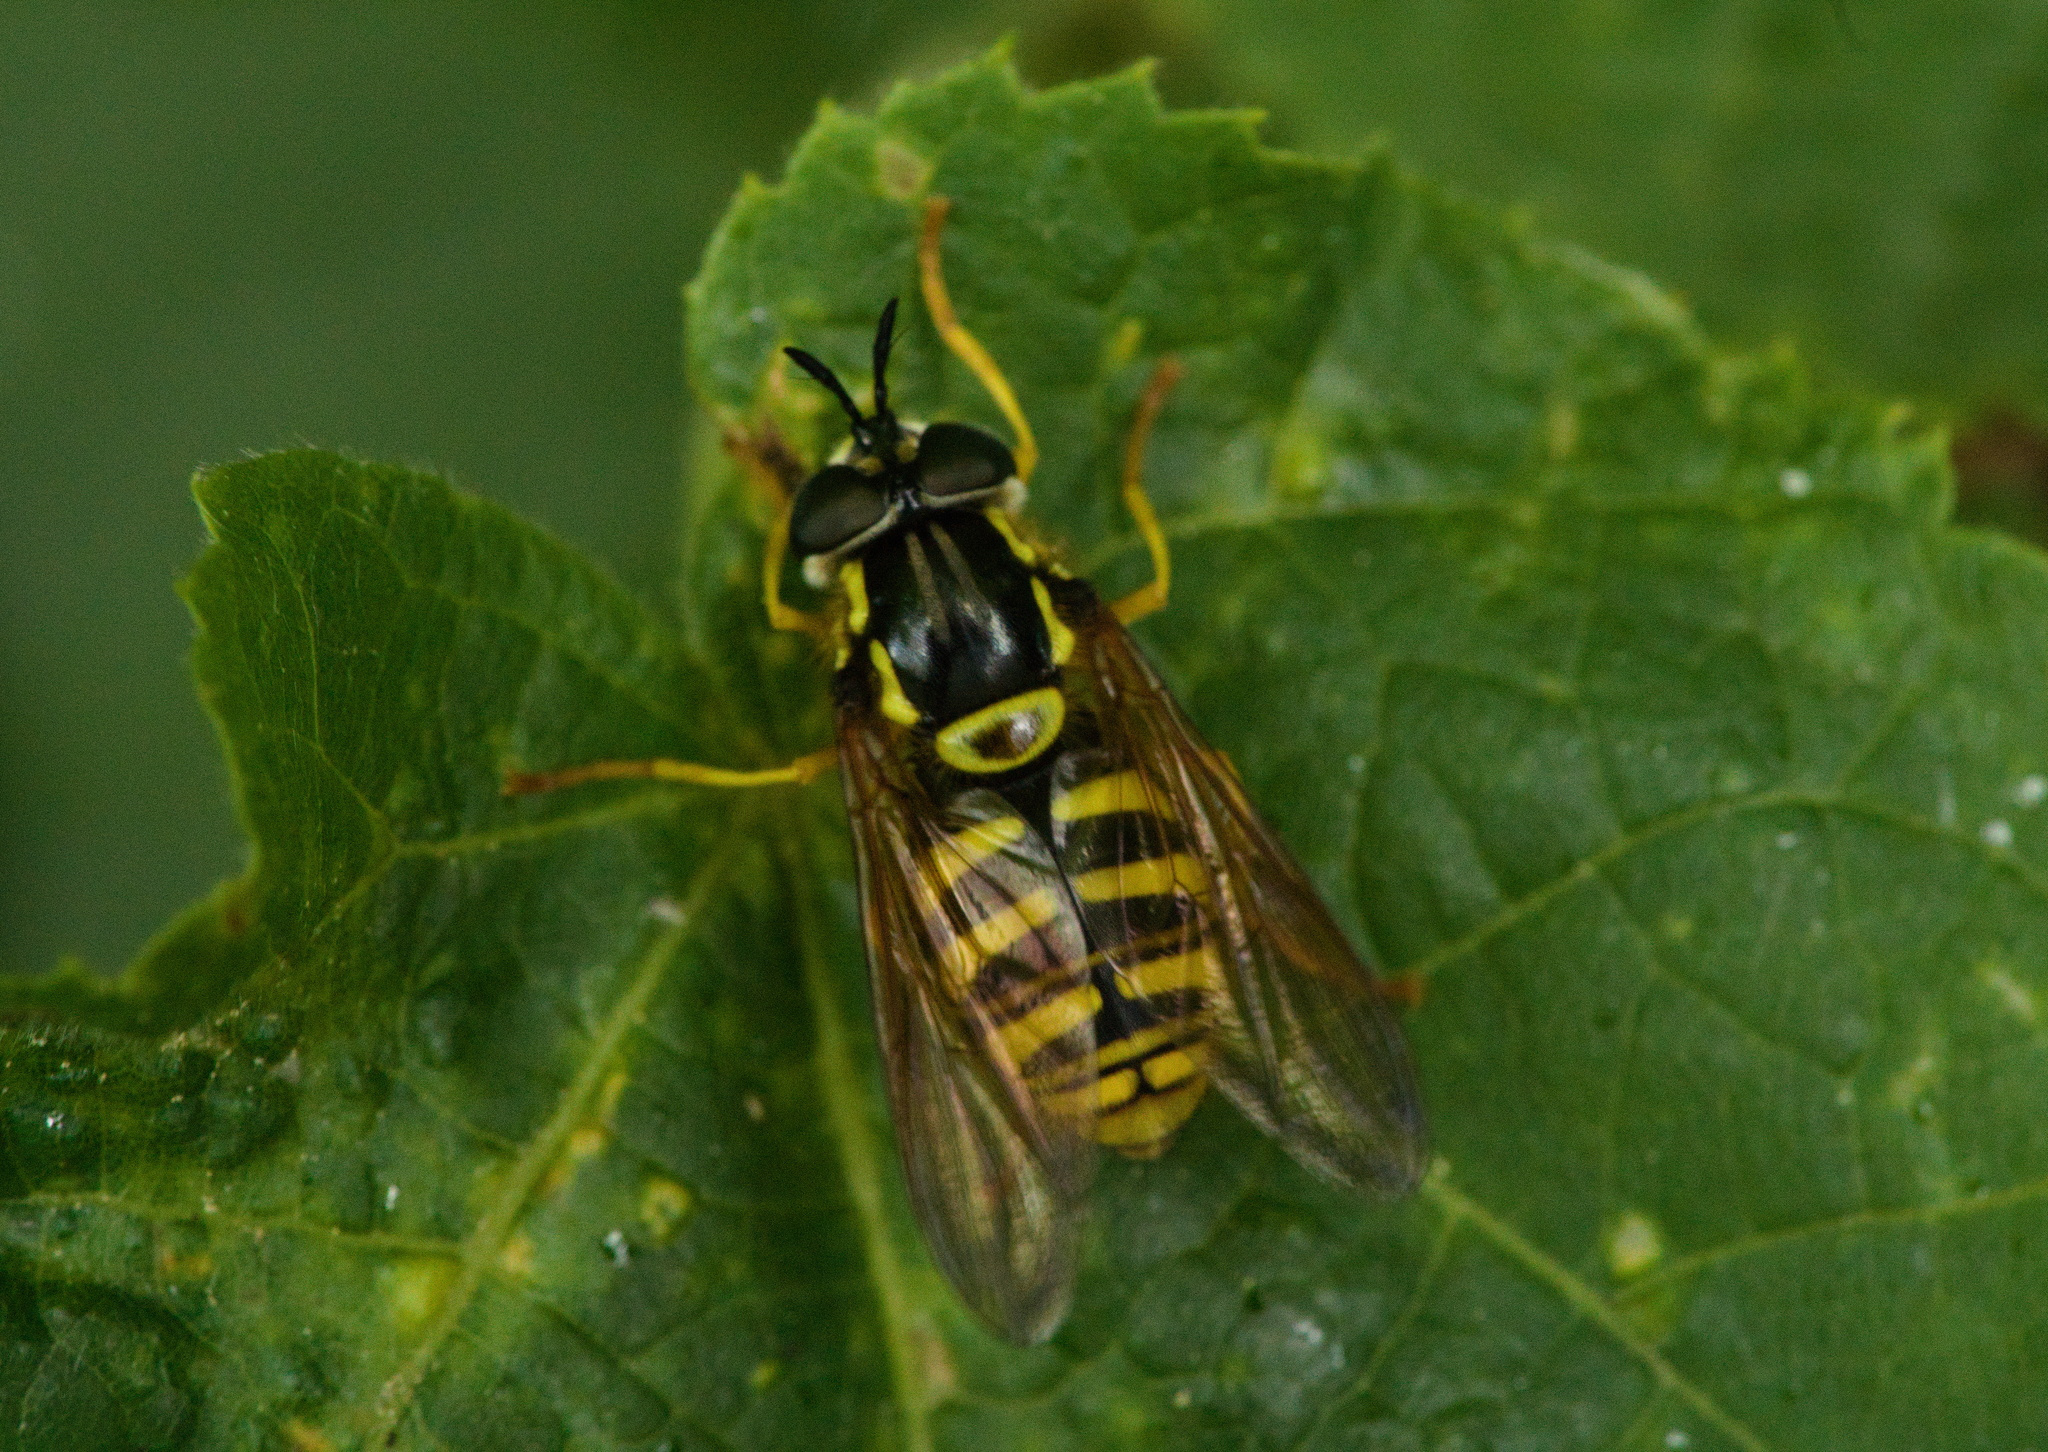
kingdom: Animalia
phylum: Arthropoda
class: Insecta
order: Diptera
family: Syrphidae
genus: Chrysotoxum
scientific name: Chrysotoxum cautum
